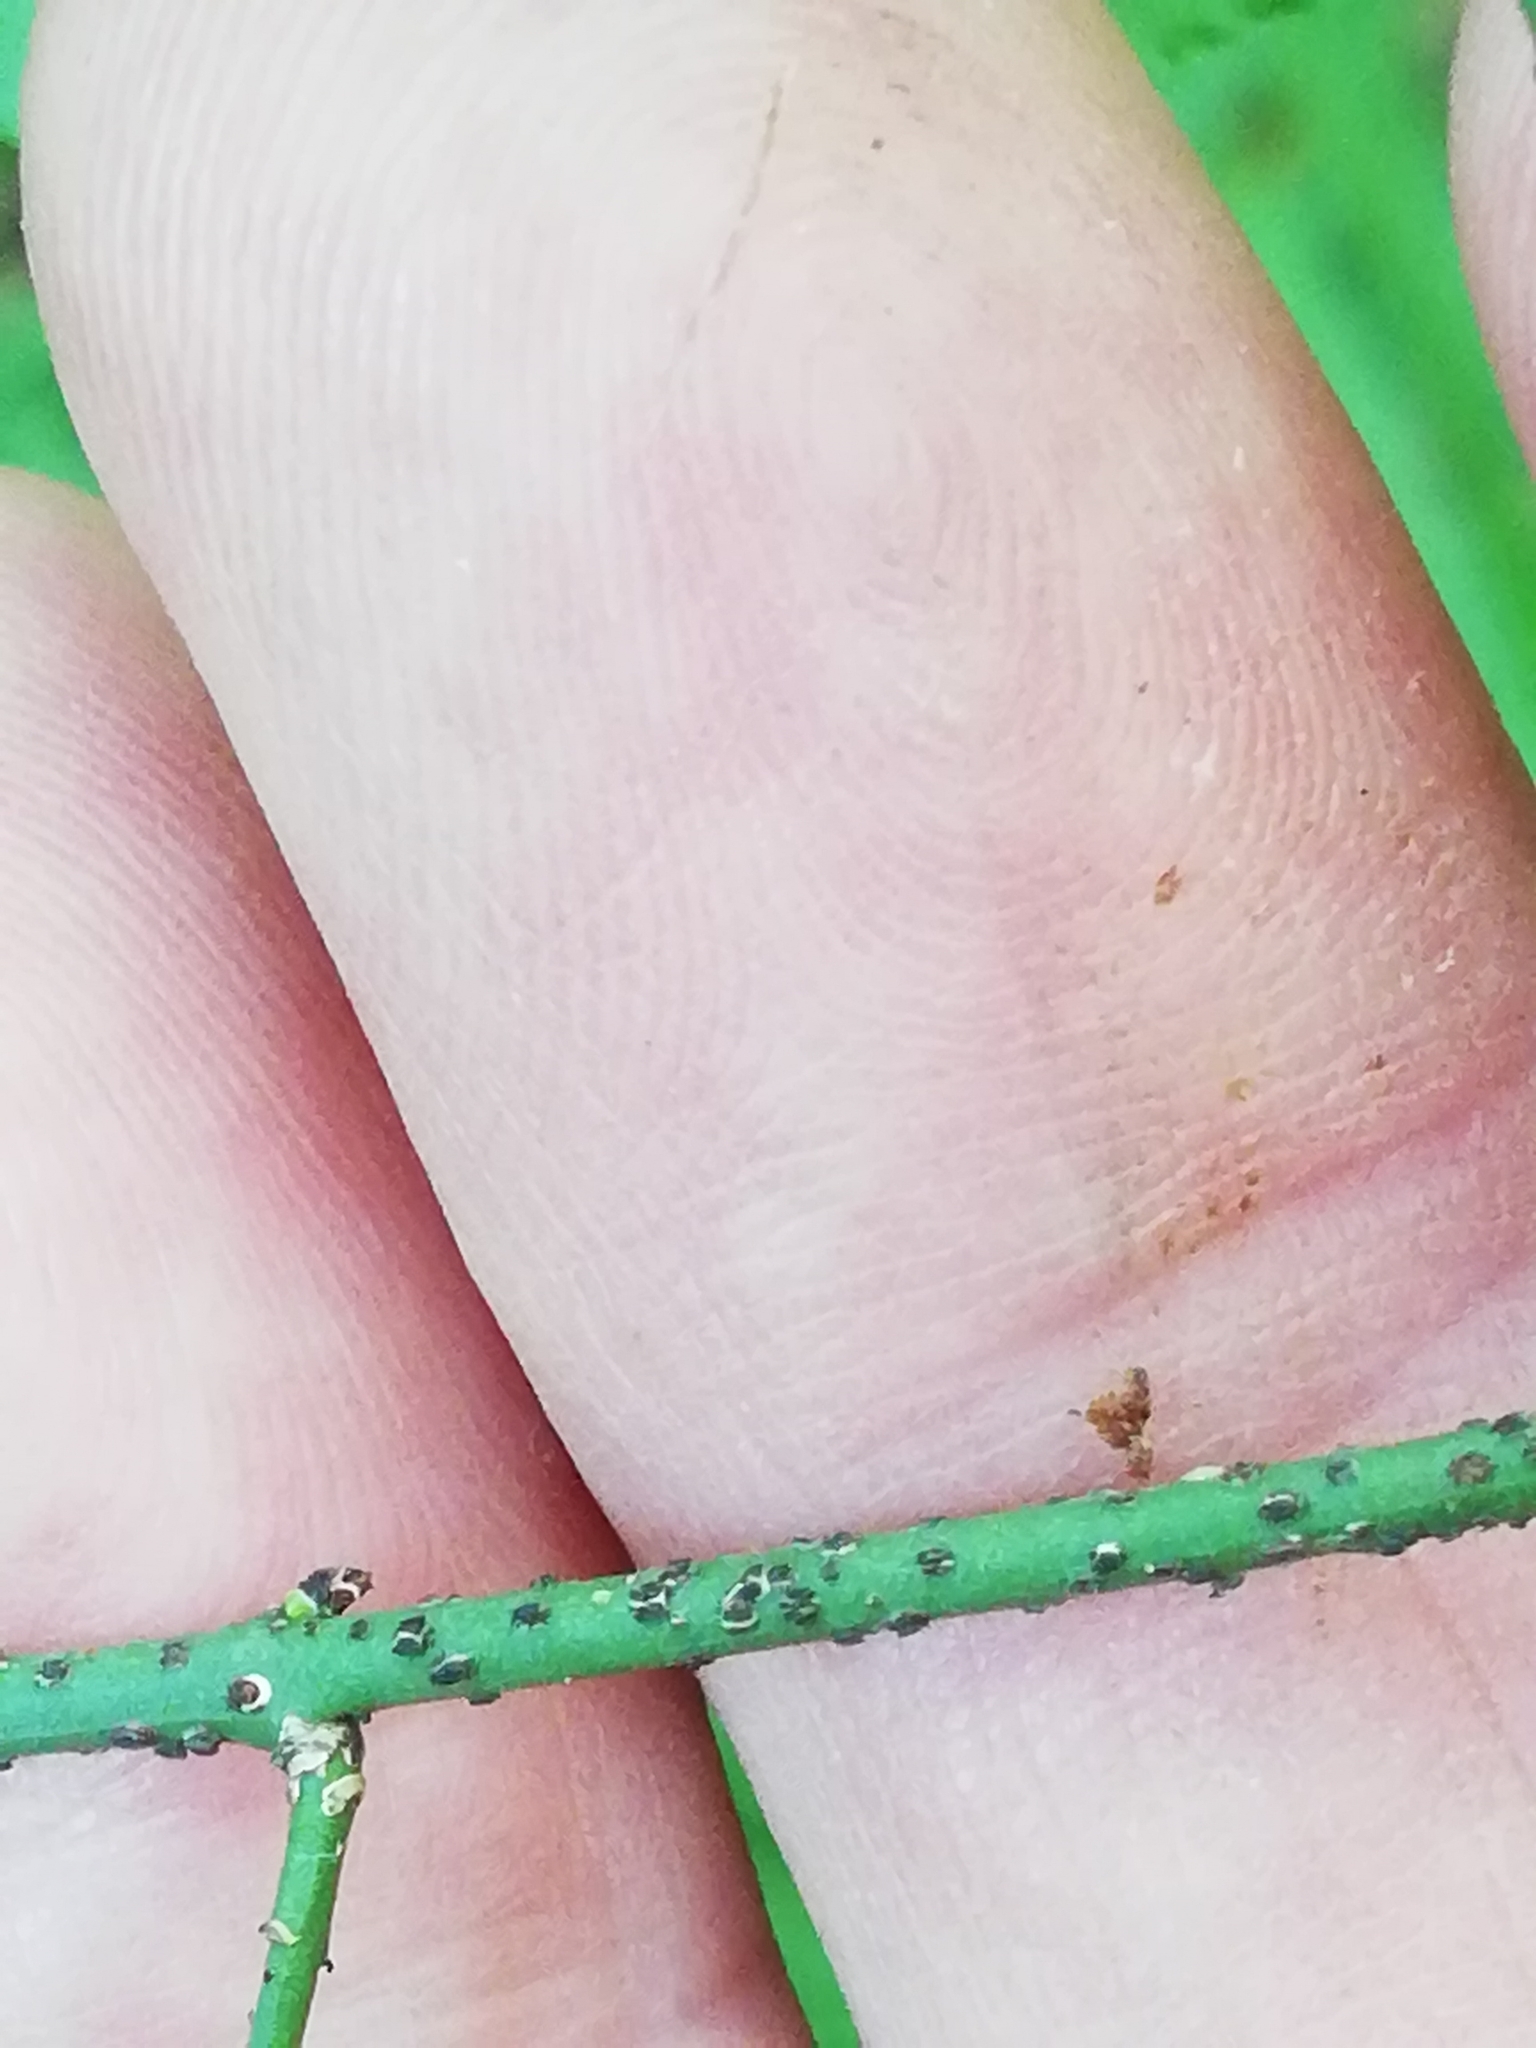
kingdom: Plantae
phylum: Tracheophyta
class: Magnoliopsida
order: Celastrales
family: Celastraceae
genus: Euonymus
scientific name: Euonymus verrucosus
